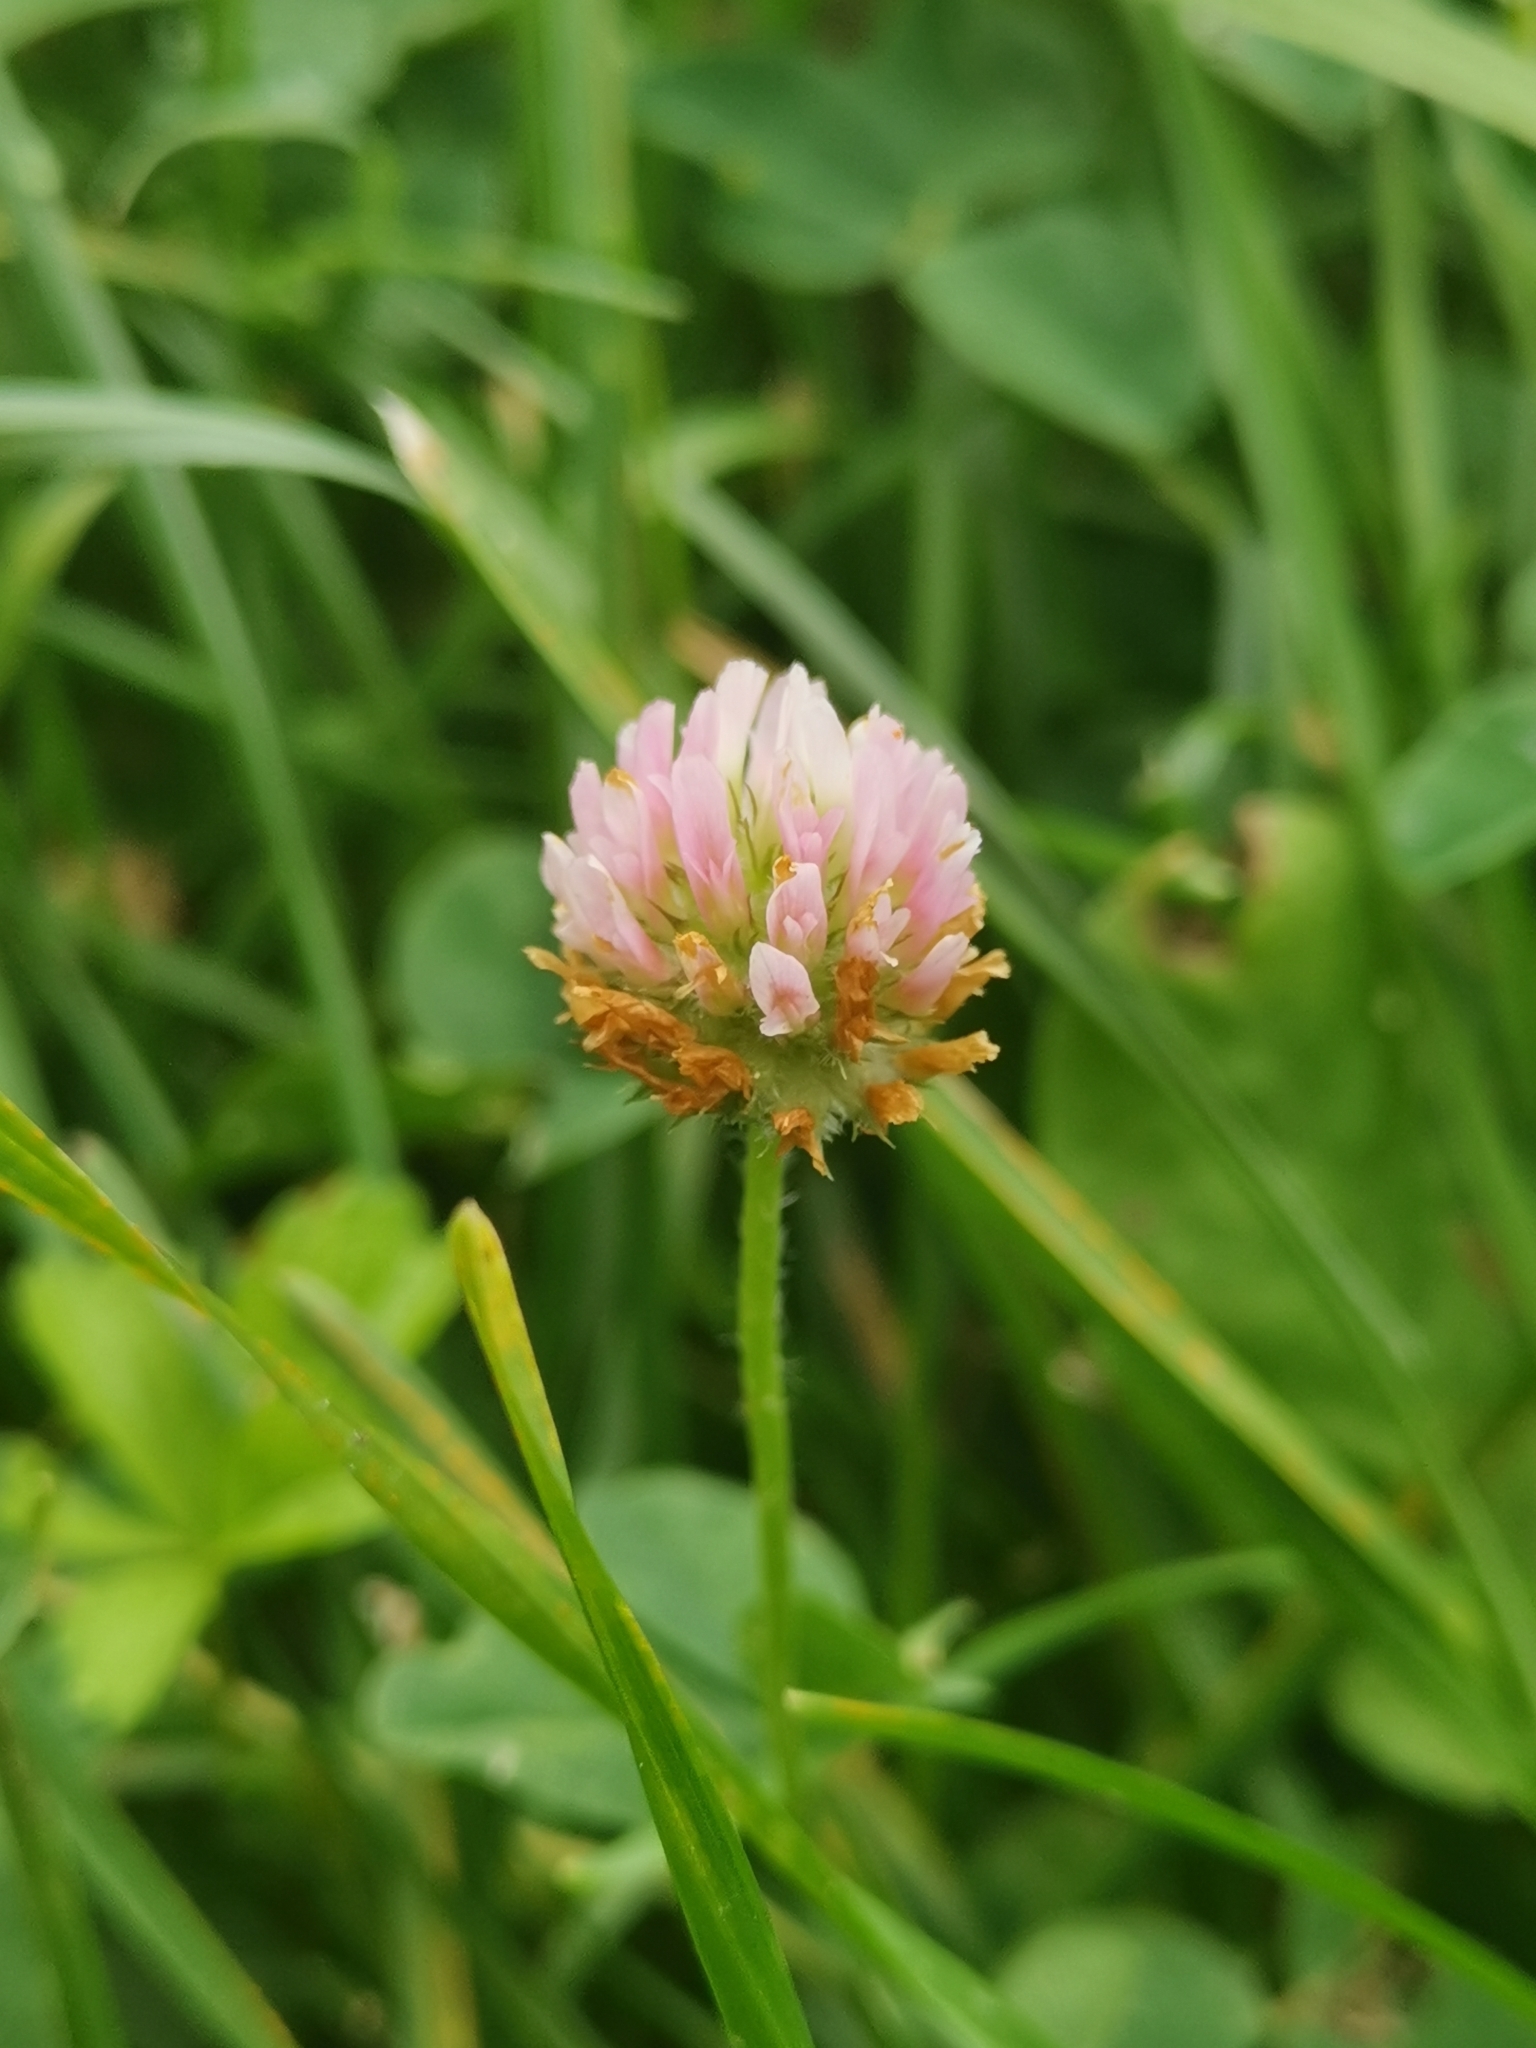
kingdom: Plantae
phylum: Tracheophyta
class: Magnoliopsida
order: Fabales
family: Fabaceae
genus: Trifolium
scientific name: Trifolium fragiferum
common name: Strawberry clover
